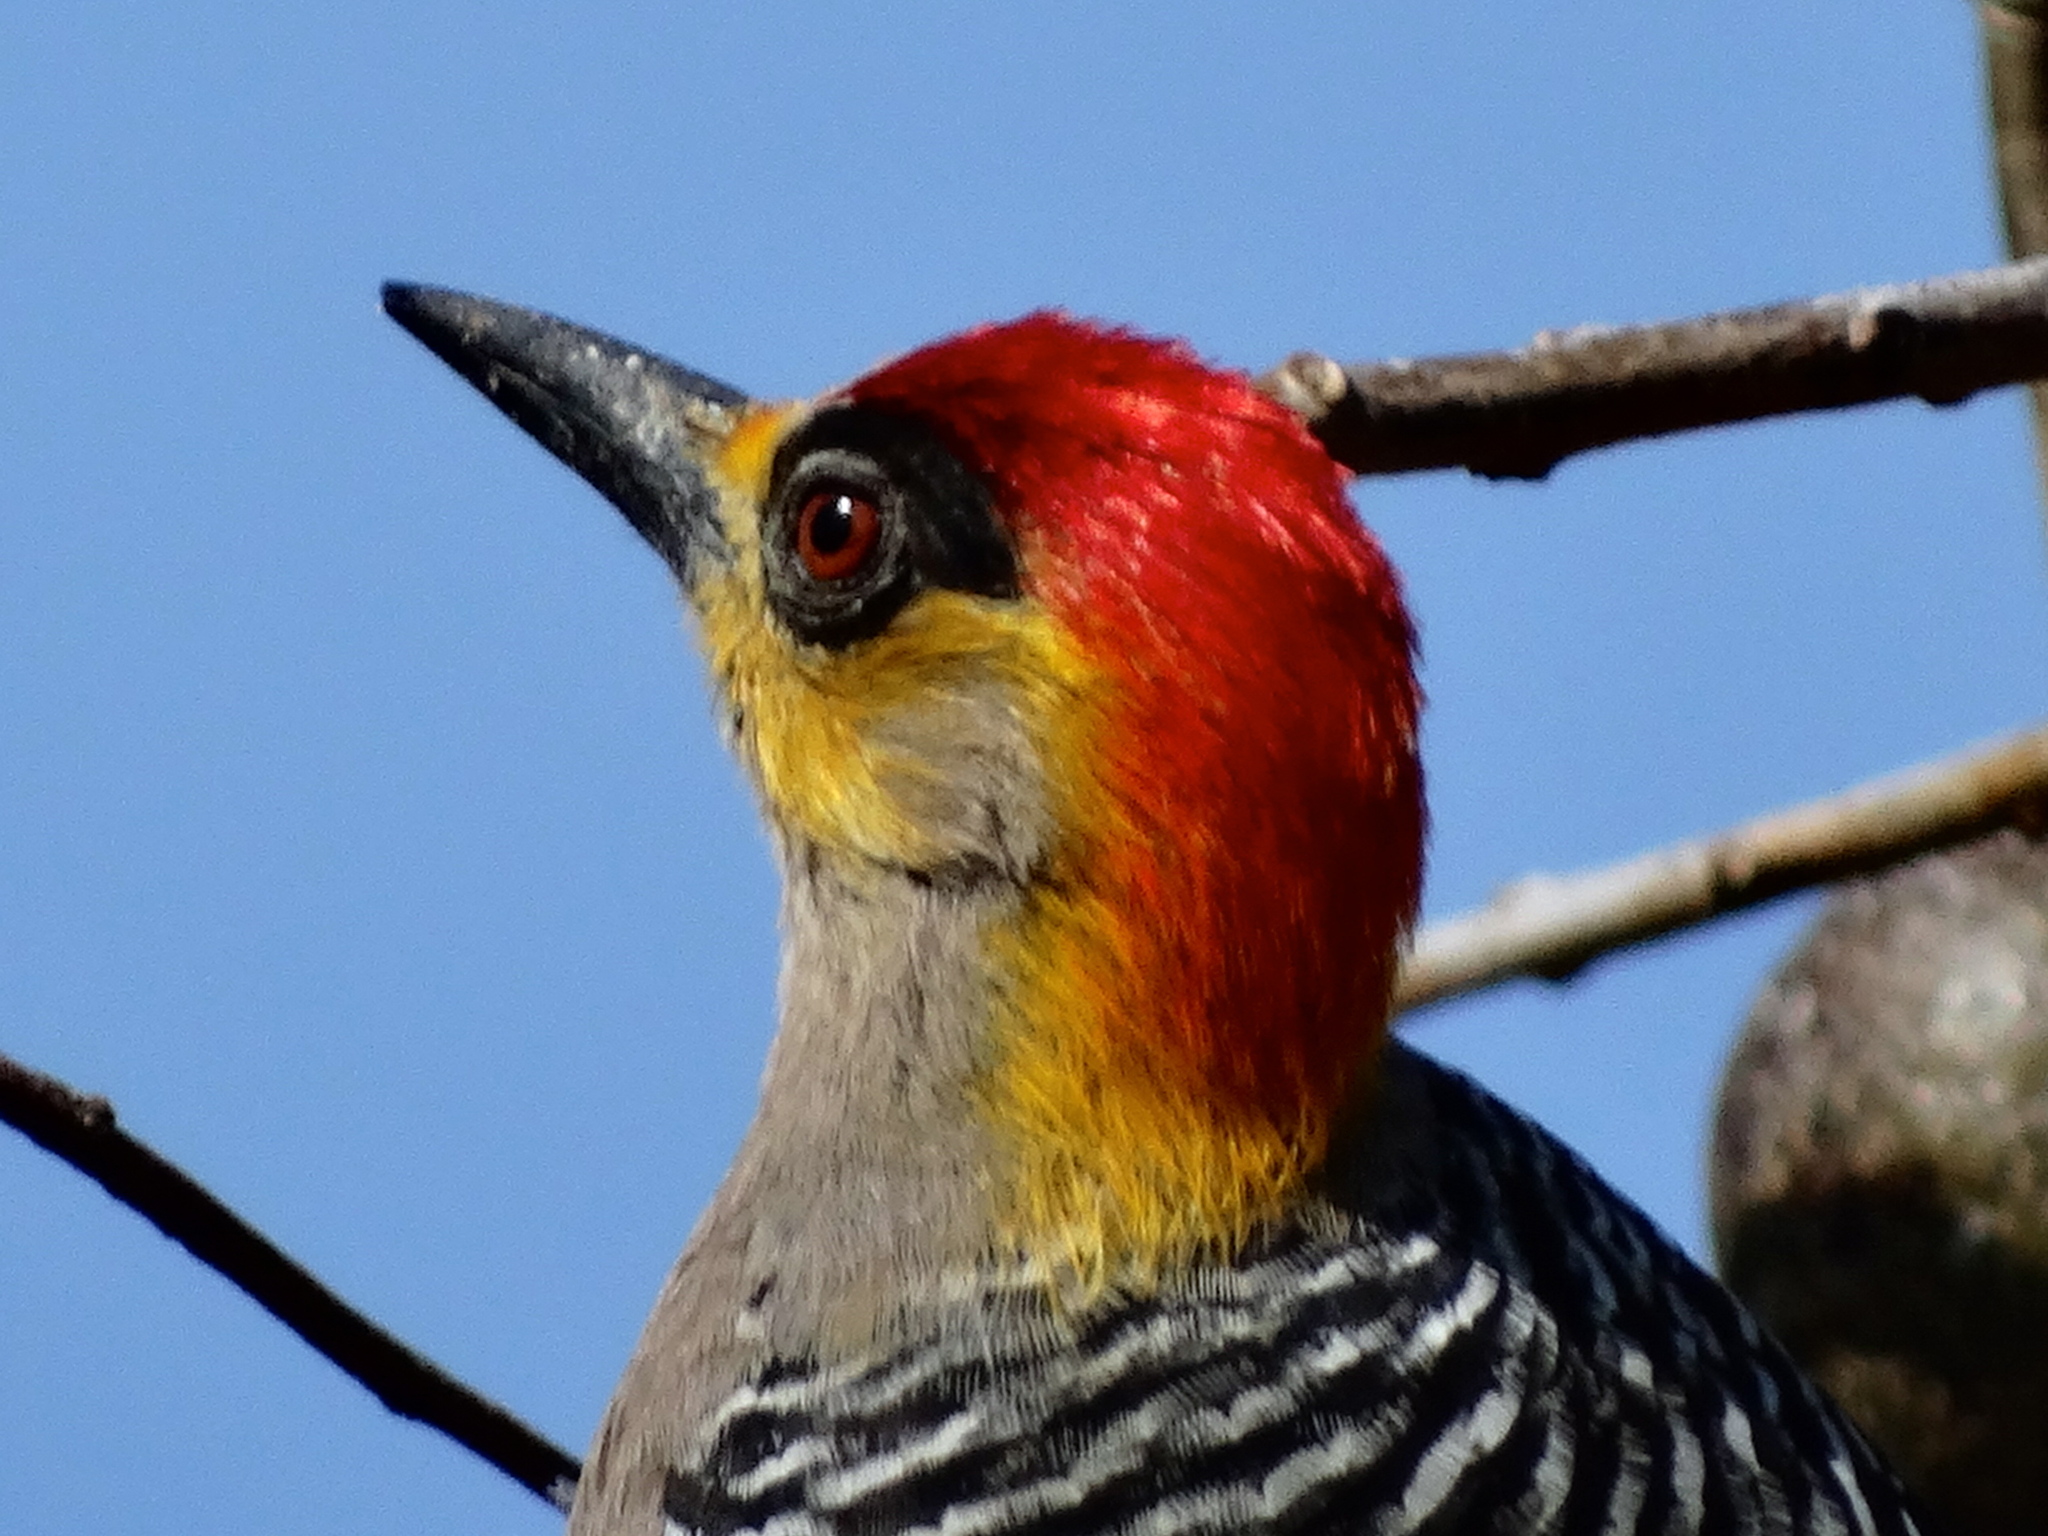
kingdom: Animalia
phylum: Chordata
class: Aves
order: Piciformes
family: Picidae
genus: Melanerpes
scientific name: Melanerpes chrysogenys
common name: Golden-cheeked woodpecker
